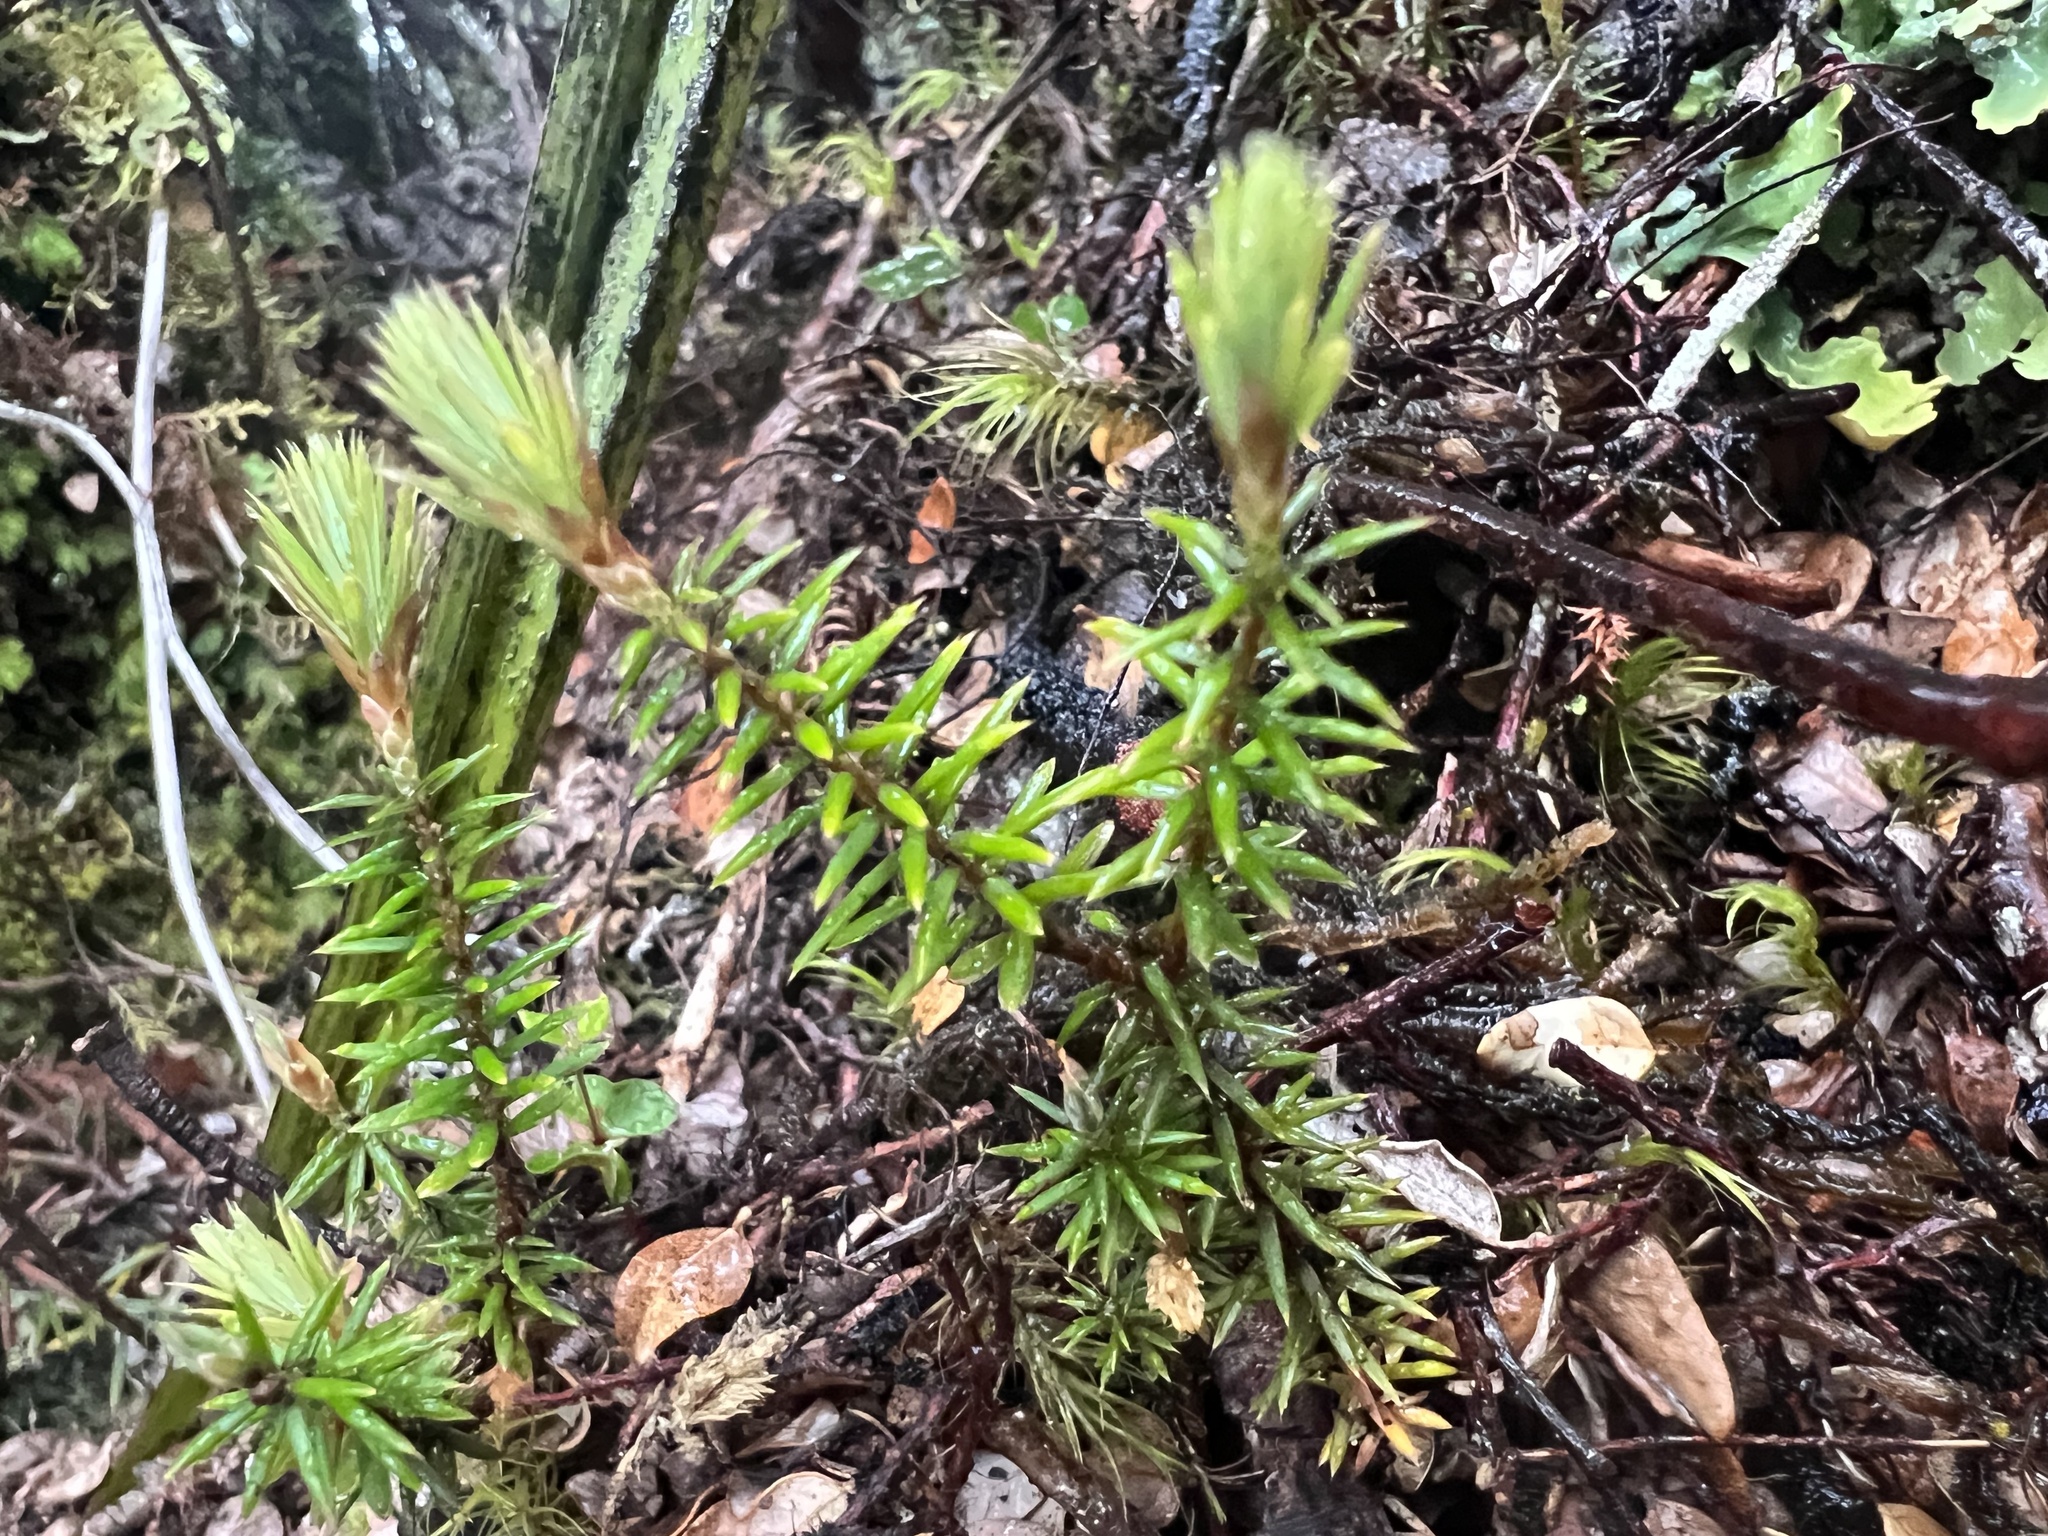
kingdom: Plantae
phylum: Tracheophyta
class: Magnoliopsida
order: Ericales
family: Ericaceae
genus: Leptecophylla
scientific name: Leptecophylla juniperina
